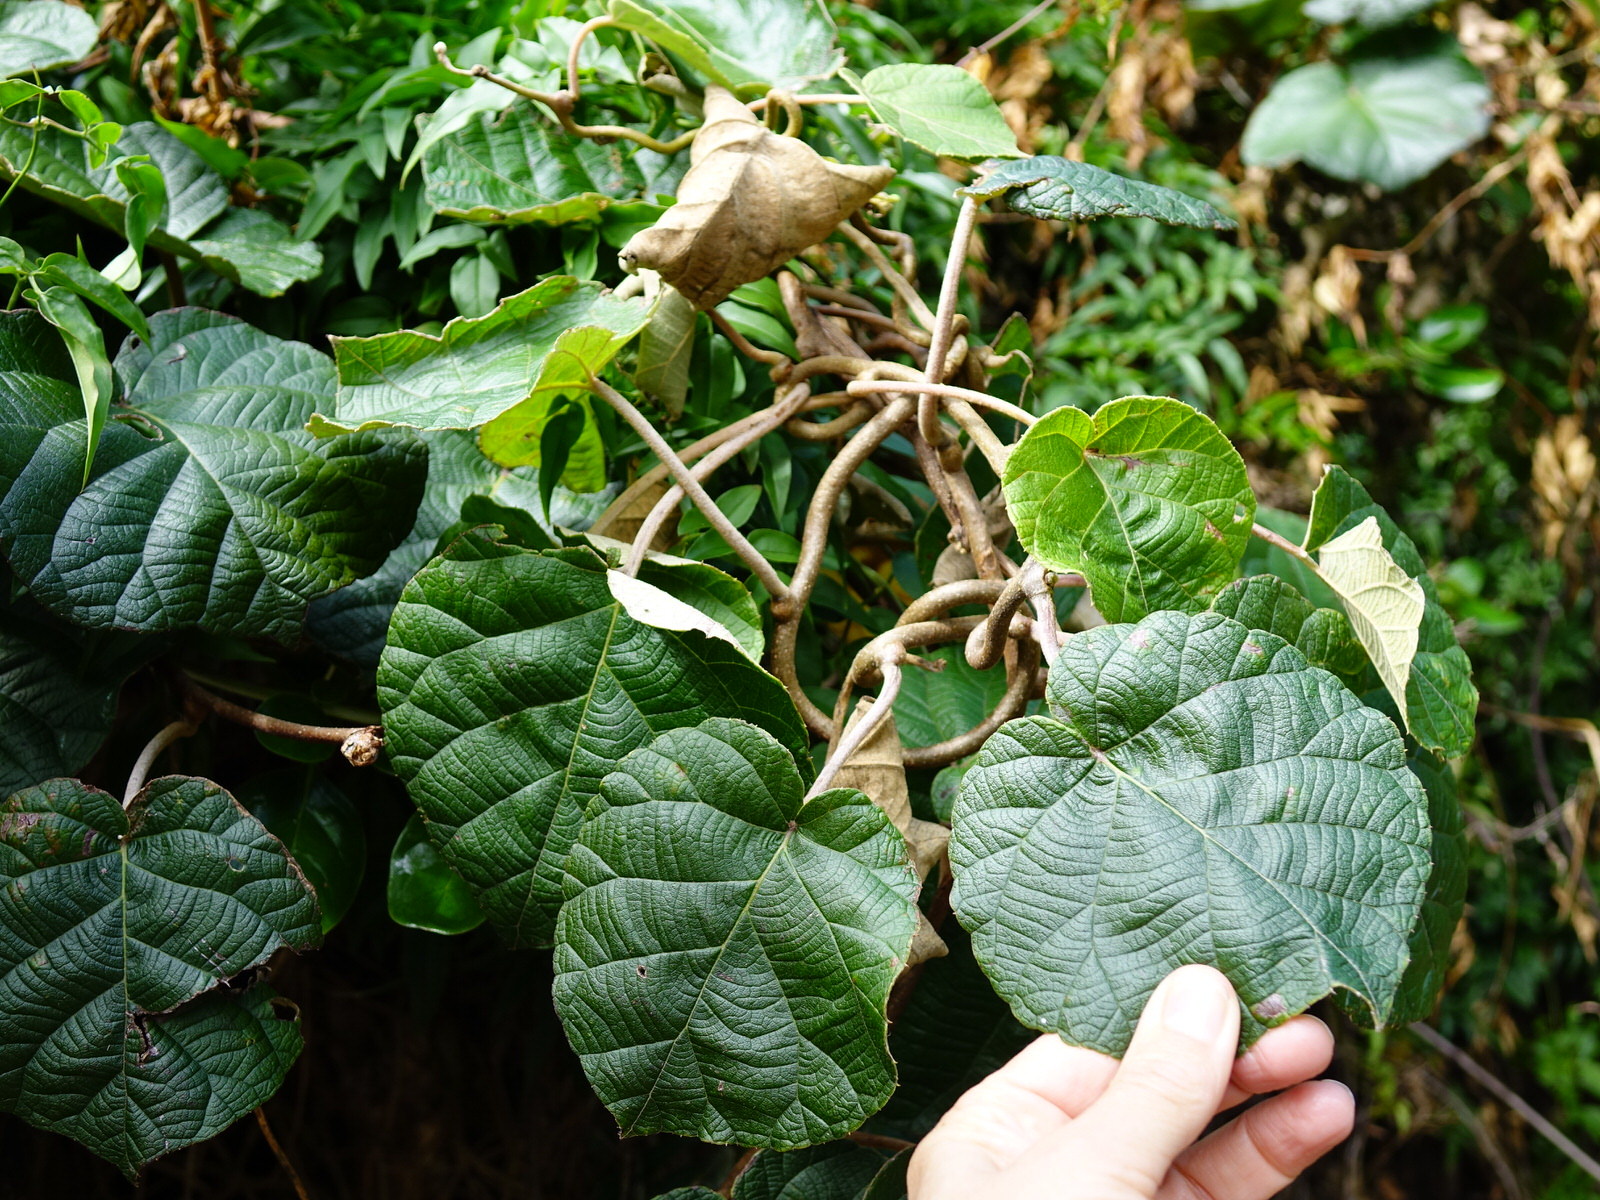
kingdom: Plantae
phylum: Tracheophyta
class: Magnoliopsida
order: Ericales
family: Actinidiaceae
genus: Actinidia
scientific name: Actinidia chinensis
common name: Kiwi
